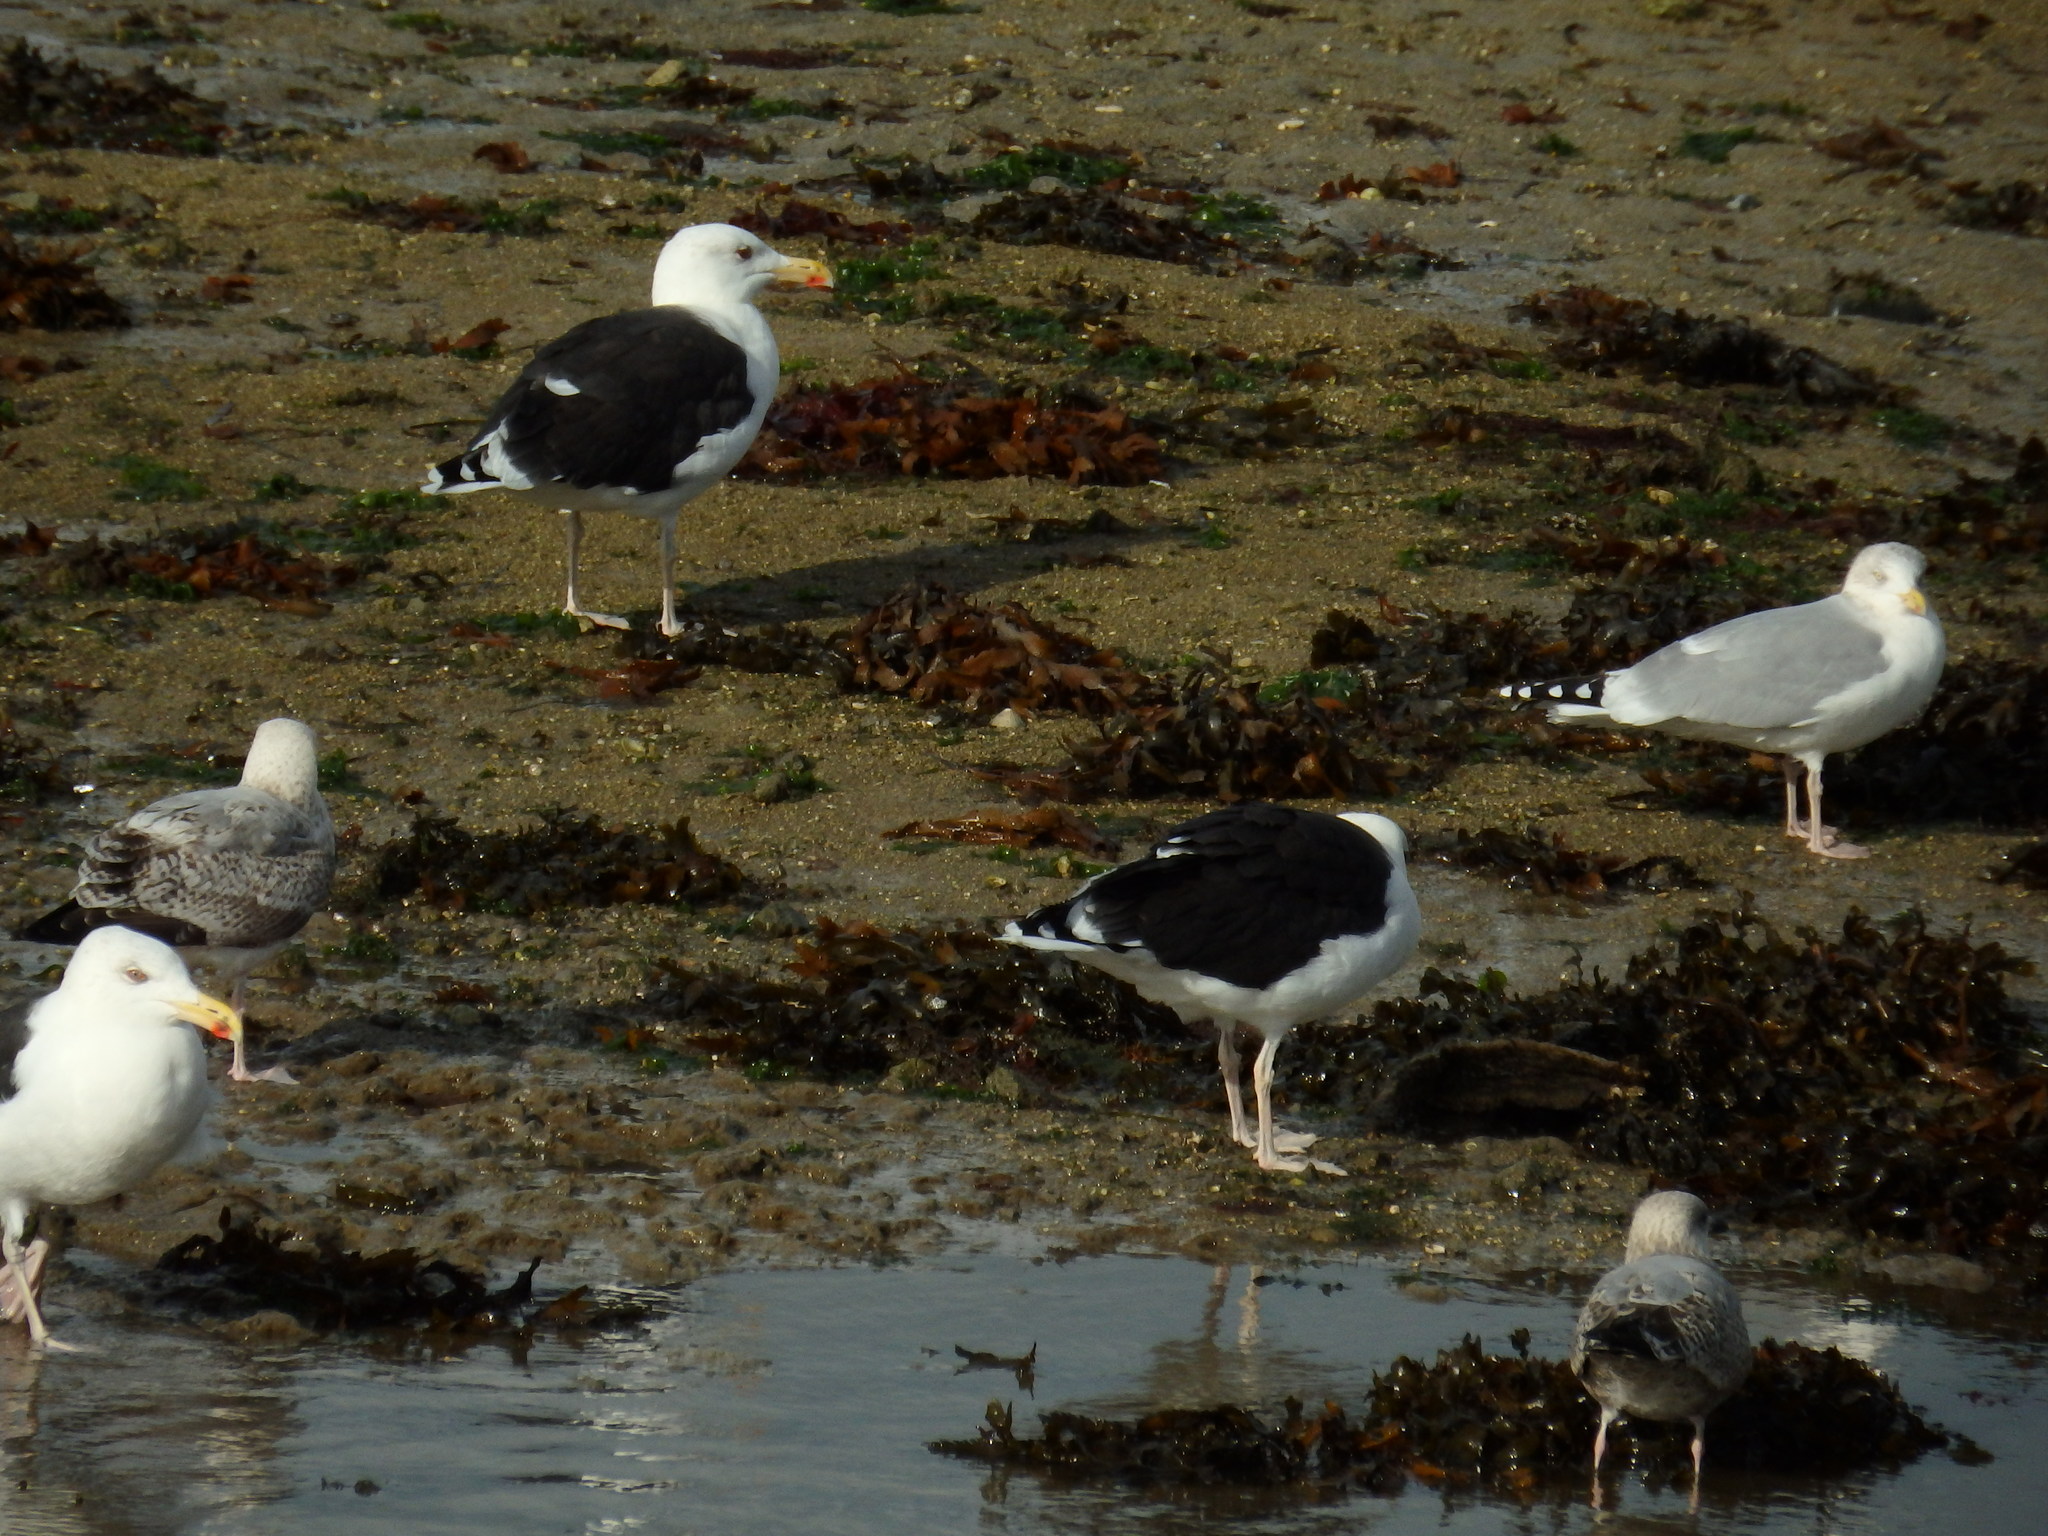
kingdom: Animalia
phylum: Chordata
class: Aves
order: Charadriiformes
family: Laridae
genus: Larus
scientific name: Larus marinus
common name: Great black-backed gull
